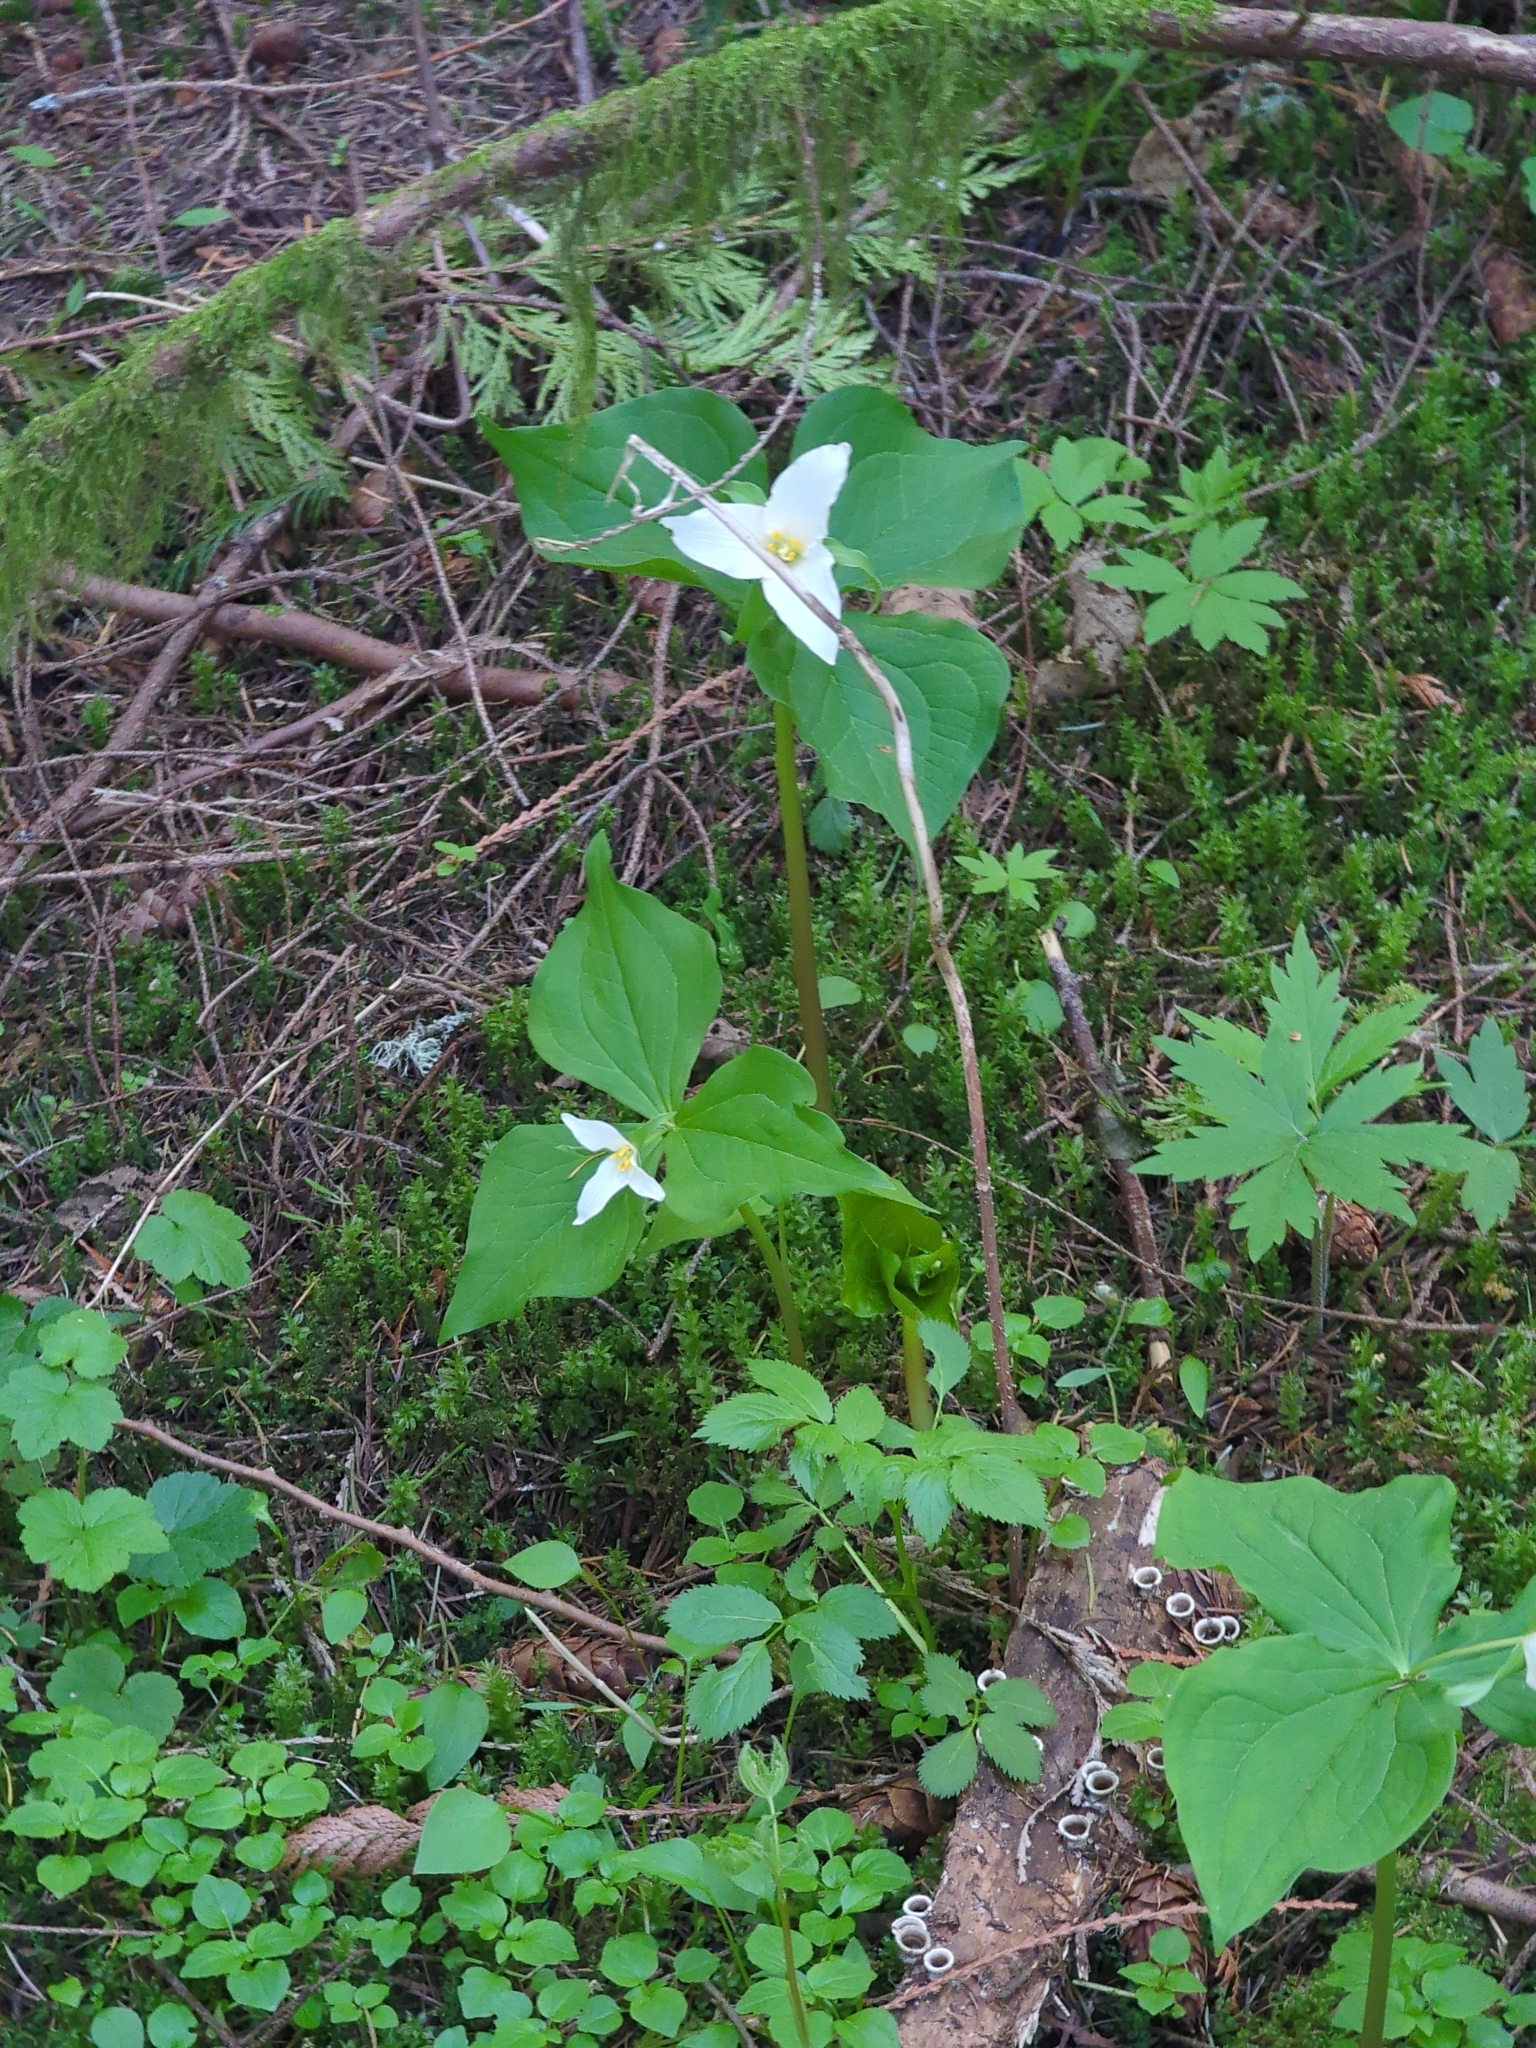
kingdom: Plantae
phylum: Tracheophyta
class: Liliopsida
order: Liliales
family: Melanthiaceae
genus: Trillium
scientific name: Trillium ovatum
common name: Pacific trillium
